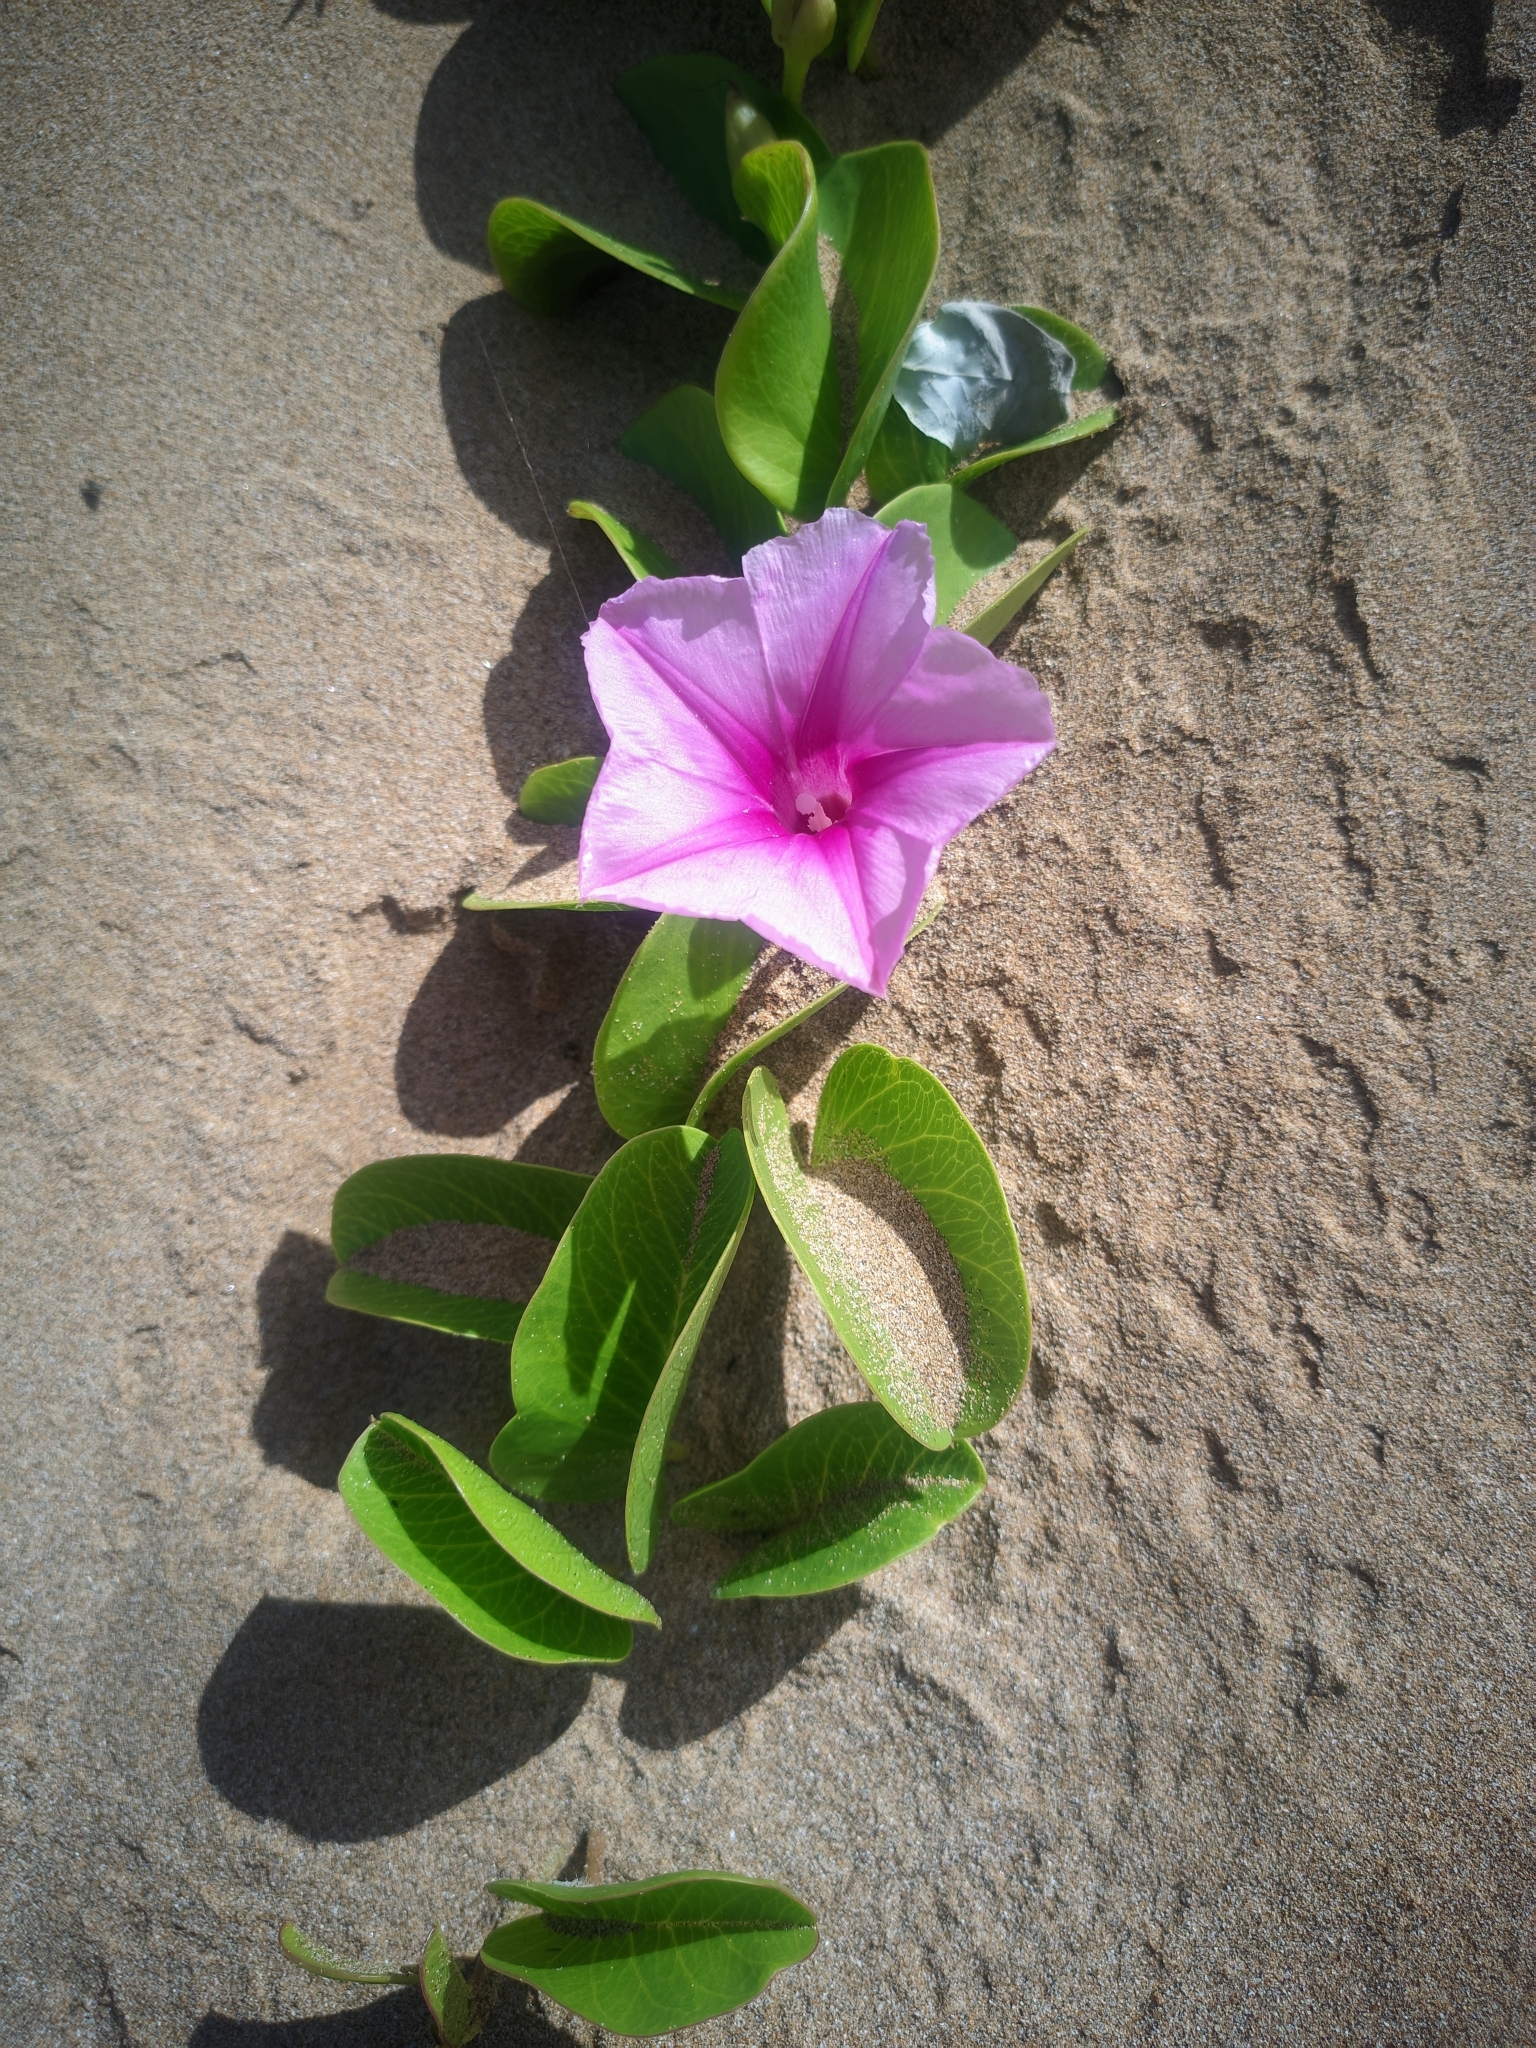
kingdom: Plantae
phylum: Tracheophyta
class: Magnoliopsida
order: Solanales
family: Convolvulaceae
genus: Ipomoea
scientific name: Ipomoea pes-caprae
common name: Beach morning glory
